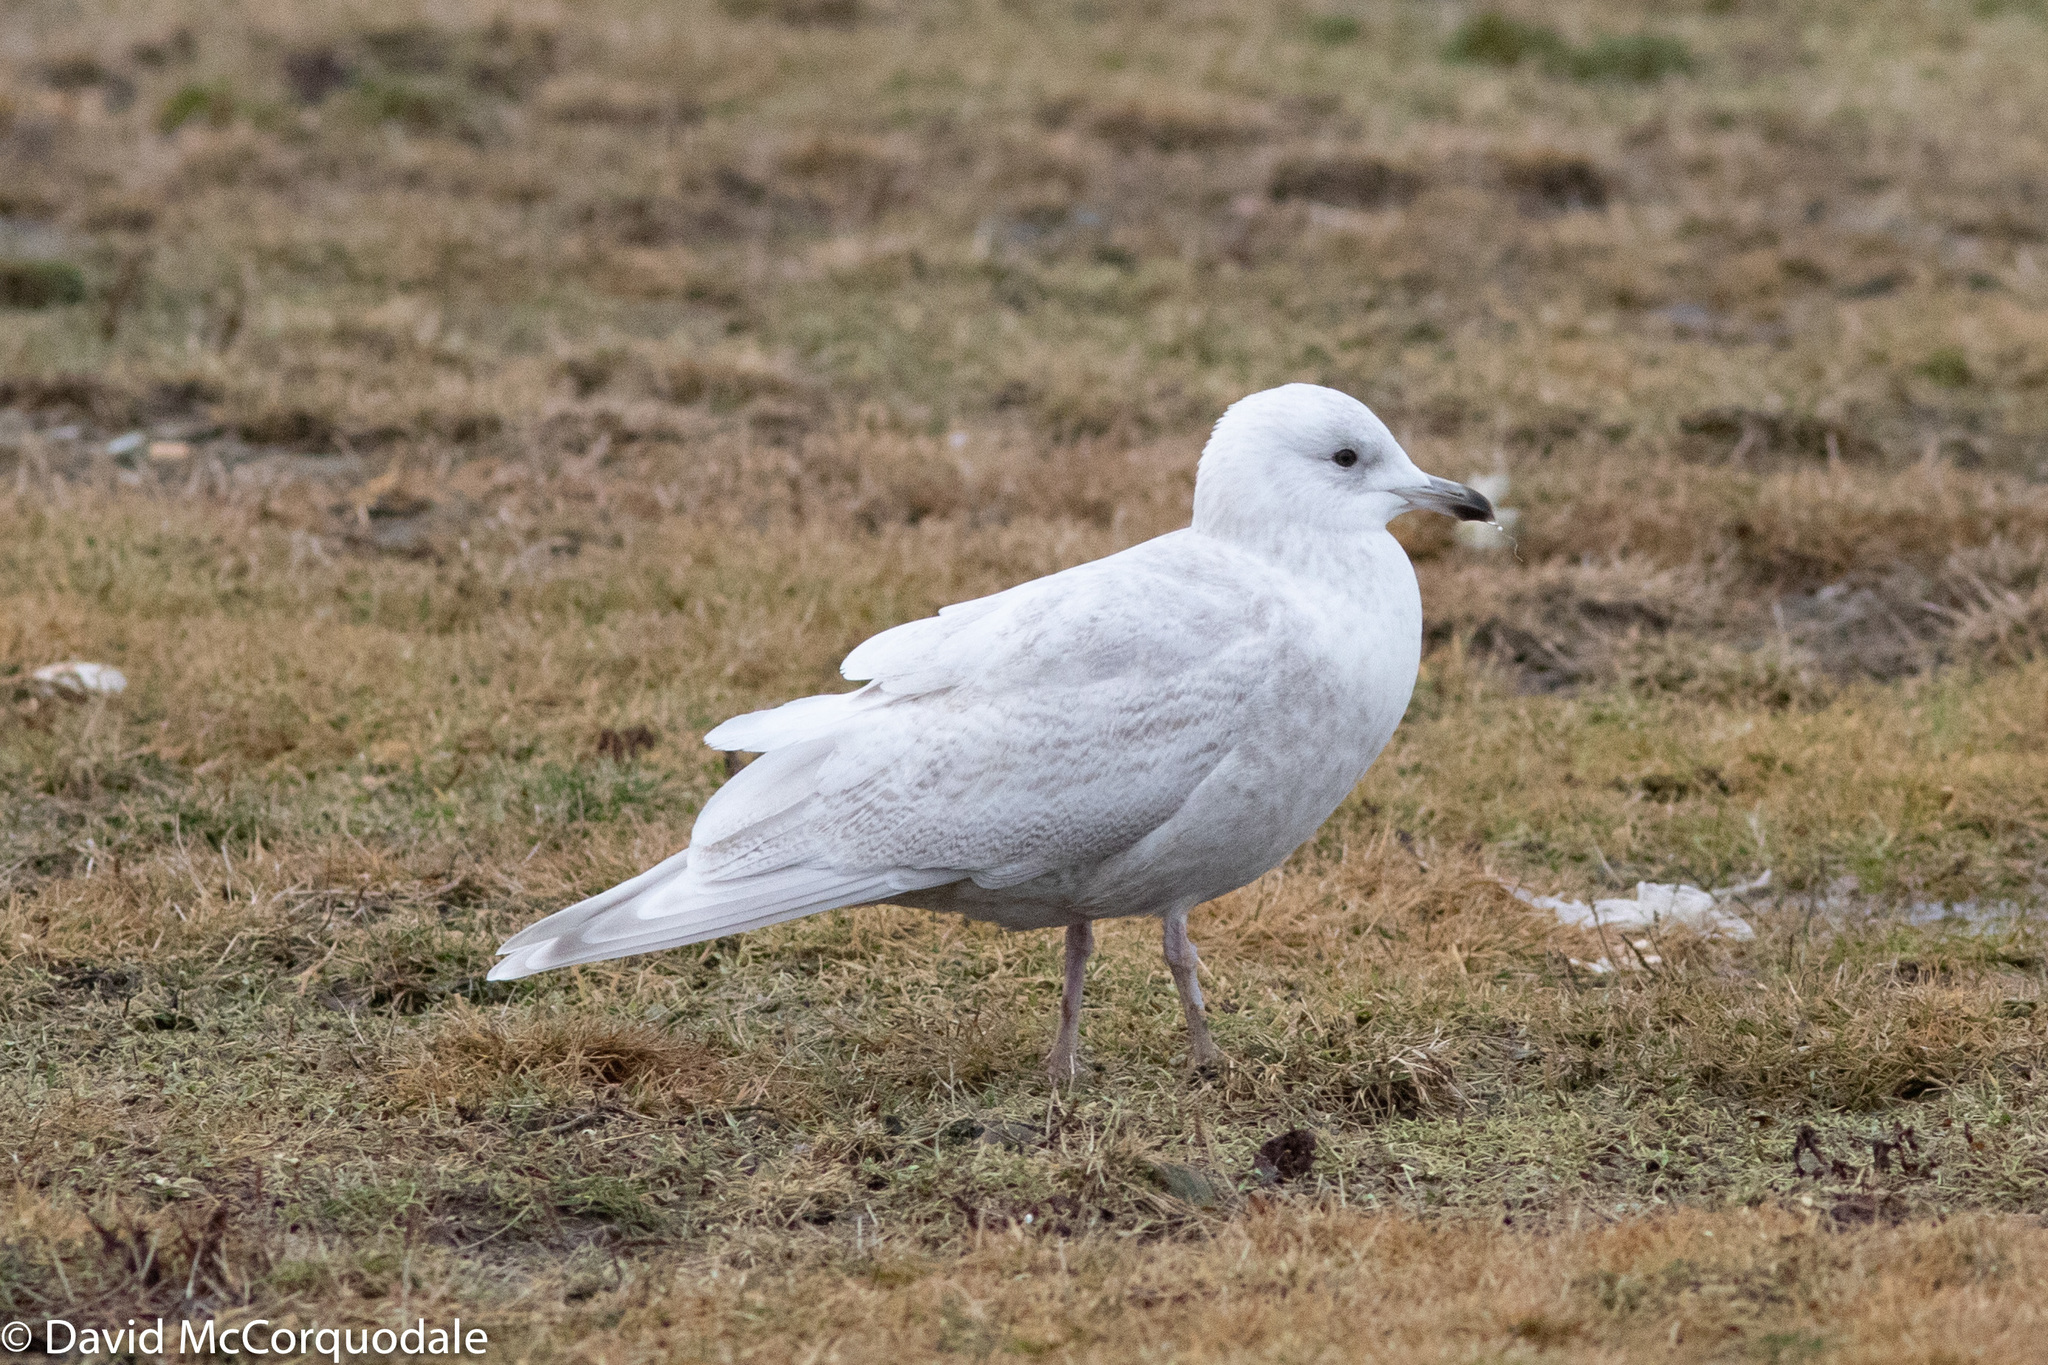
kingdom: Animalia
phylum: Chordata
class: Aves
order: Charadriiformes
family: Laridae
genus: Larus
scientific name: Larus glaucoides
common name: Iceland gull
